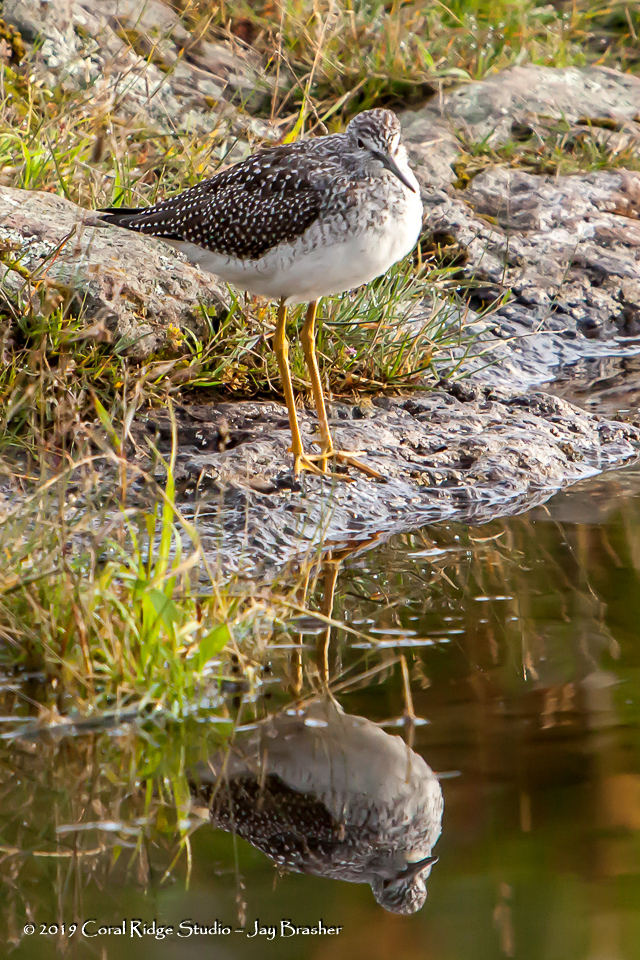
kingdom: Animalia
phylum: Chordata
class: Aves
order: Charadriiformes
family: Scolopacidae
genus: Tringa
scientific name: Tringa melanoleuca
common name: Greater yellowlegs
